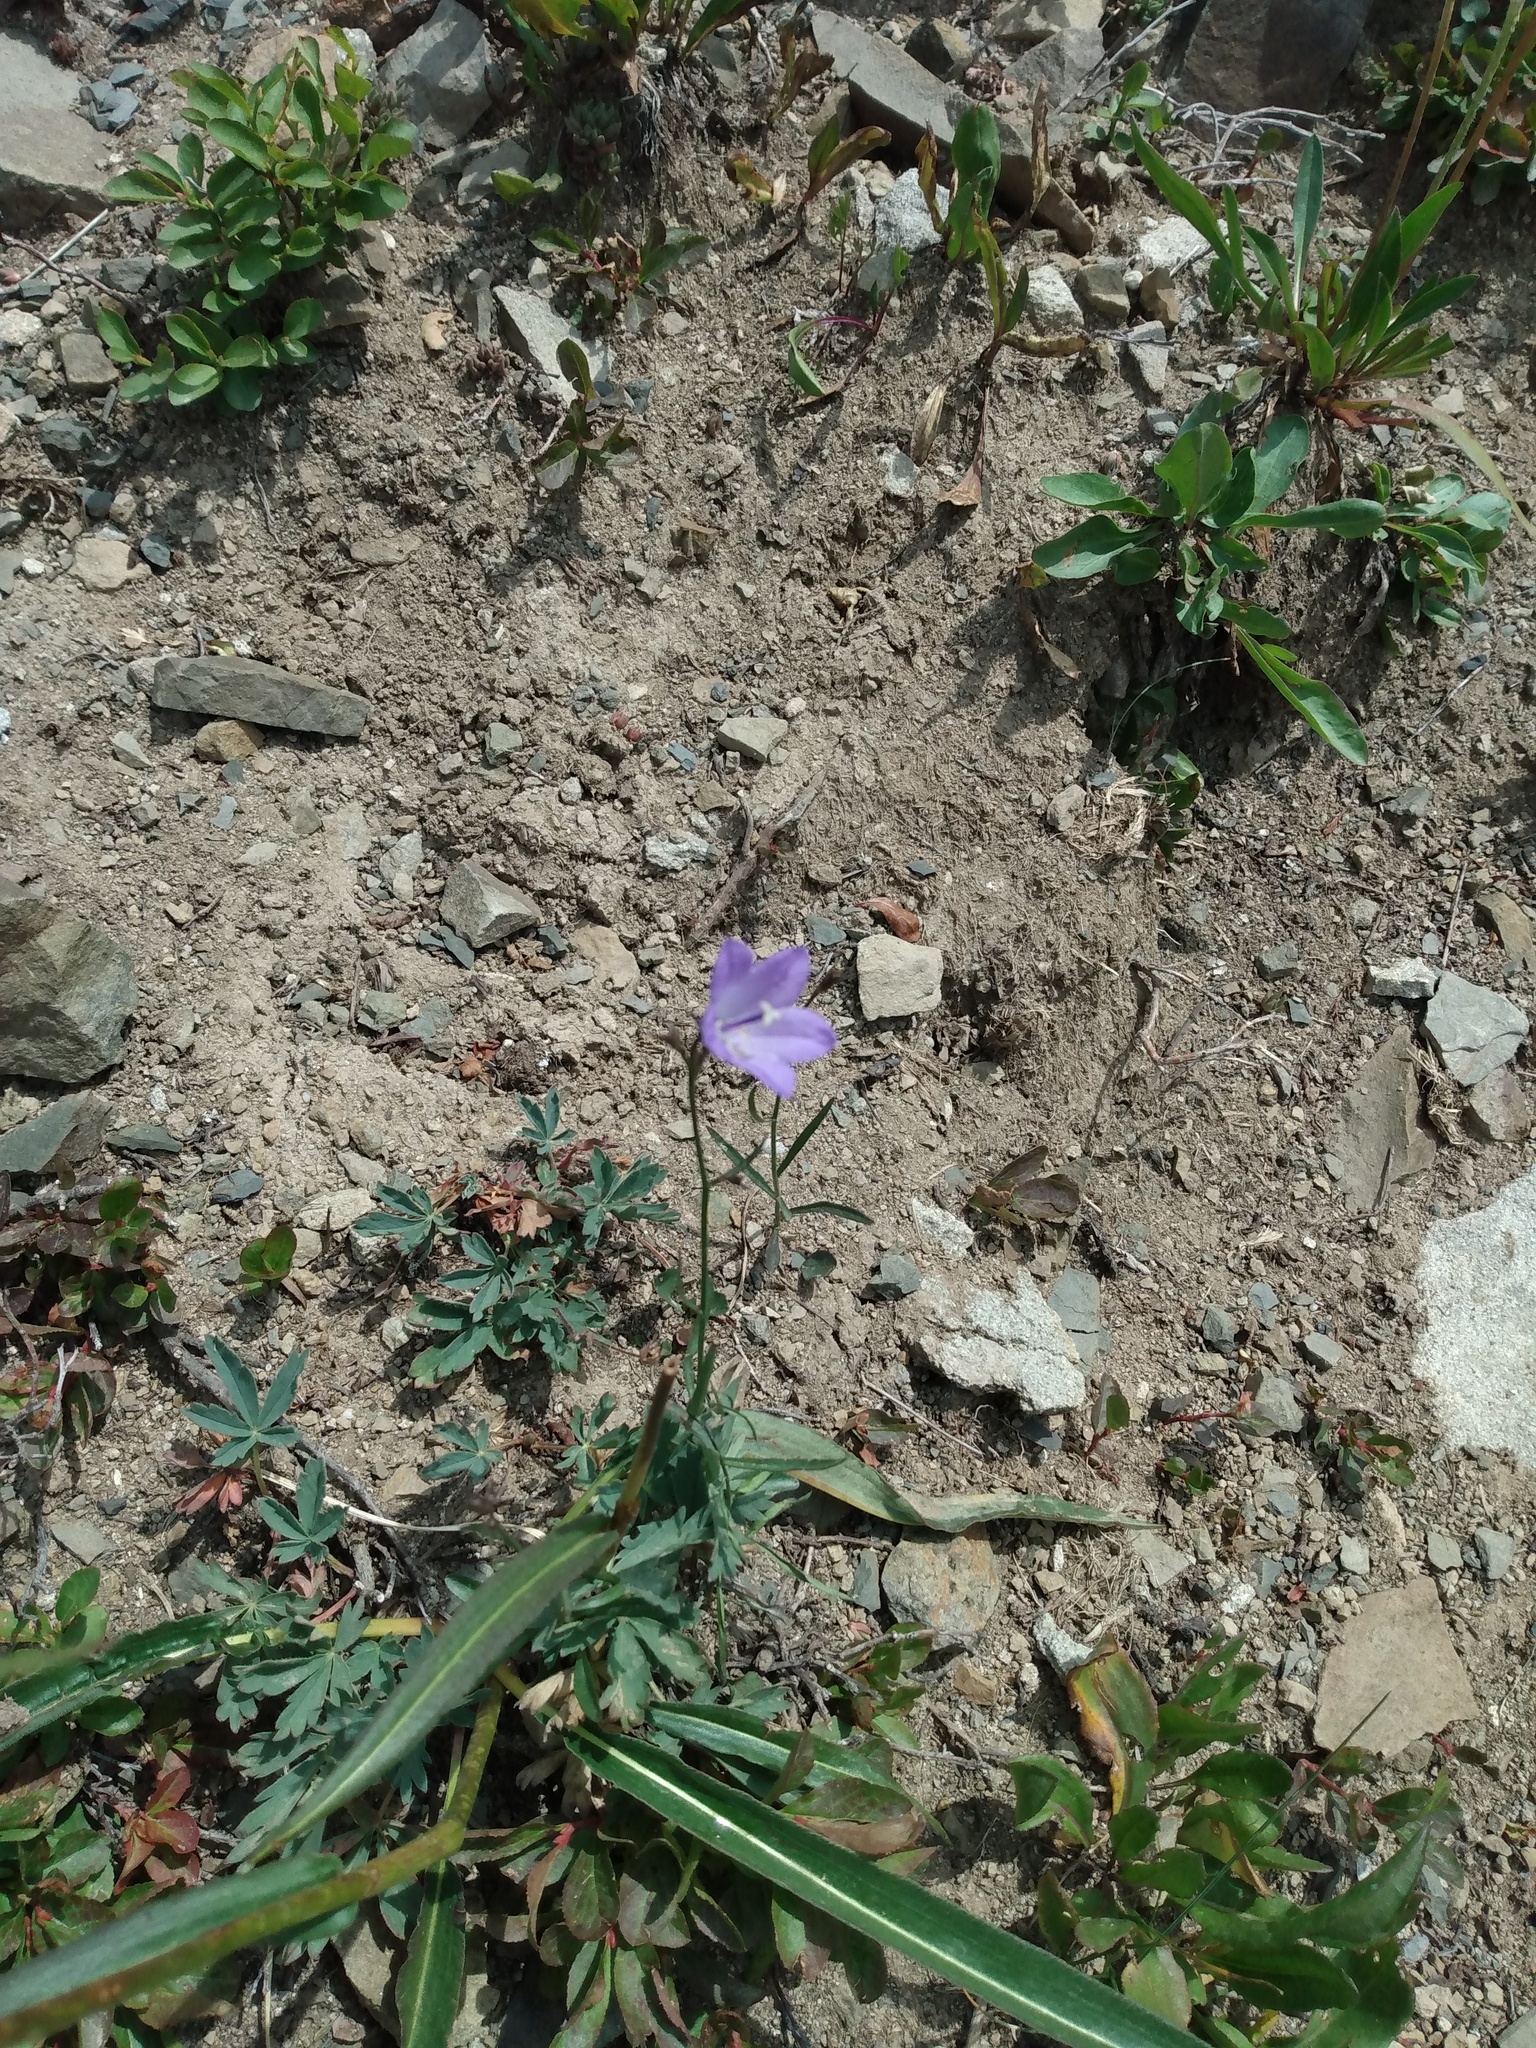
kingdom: Plantae
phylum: Tracheophyta
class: Magnoliopsida
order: Asterales
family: Campanulaceae
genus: Campanula
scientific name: Campanula petiolata
